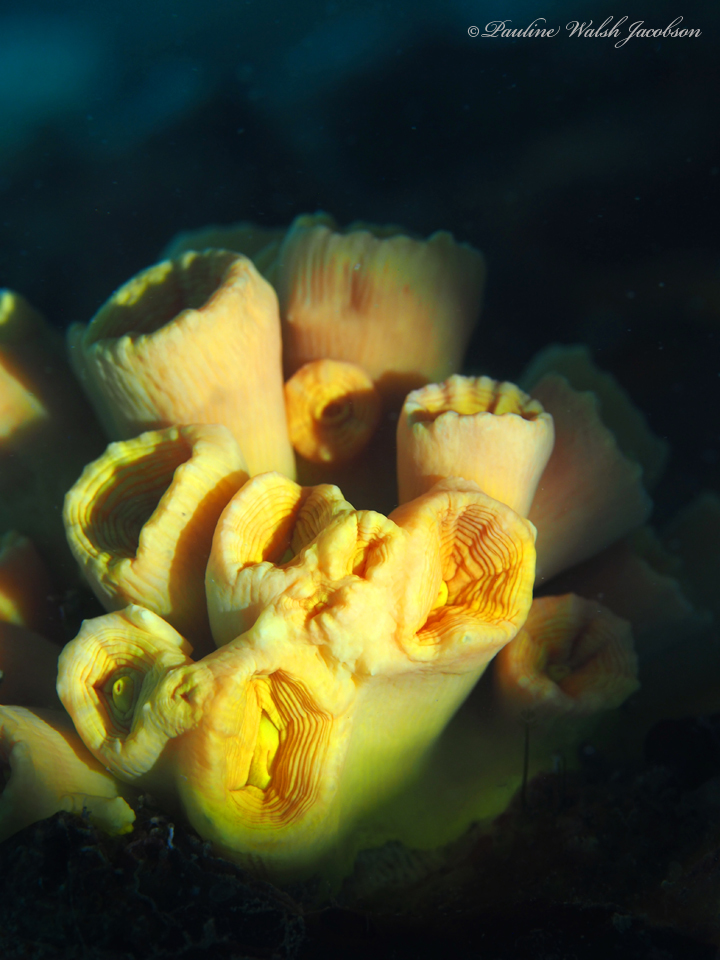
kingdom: Animalia
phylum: Cnidaria
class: Anthozoa
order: Scleractinia
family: Dendrophylliidae
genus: Tubastraea
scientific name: Tubastraea tagusensis
